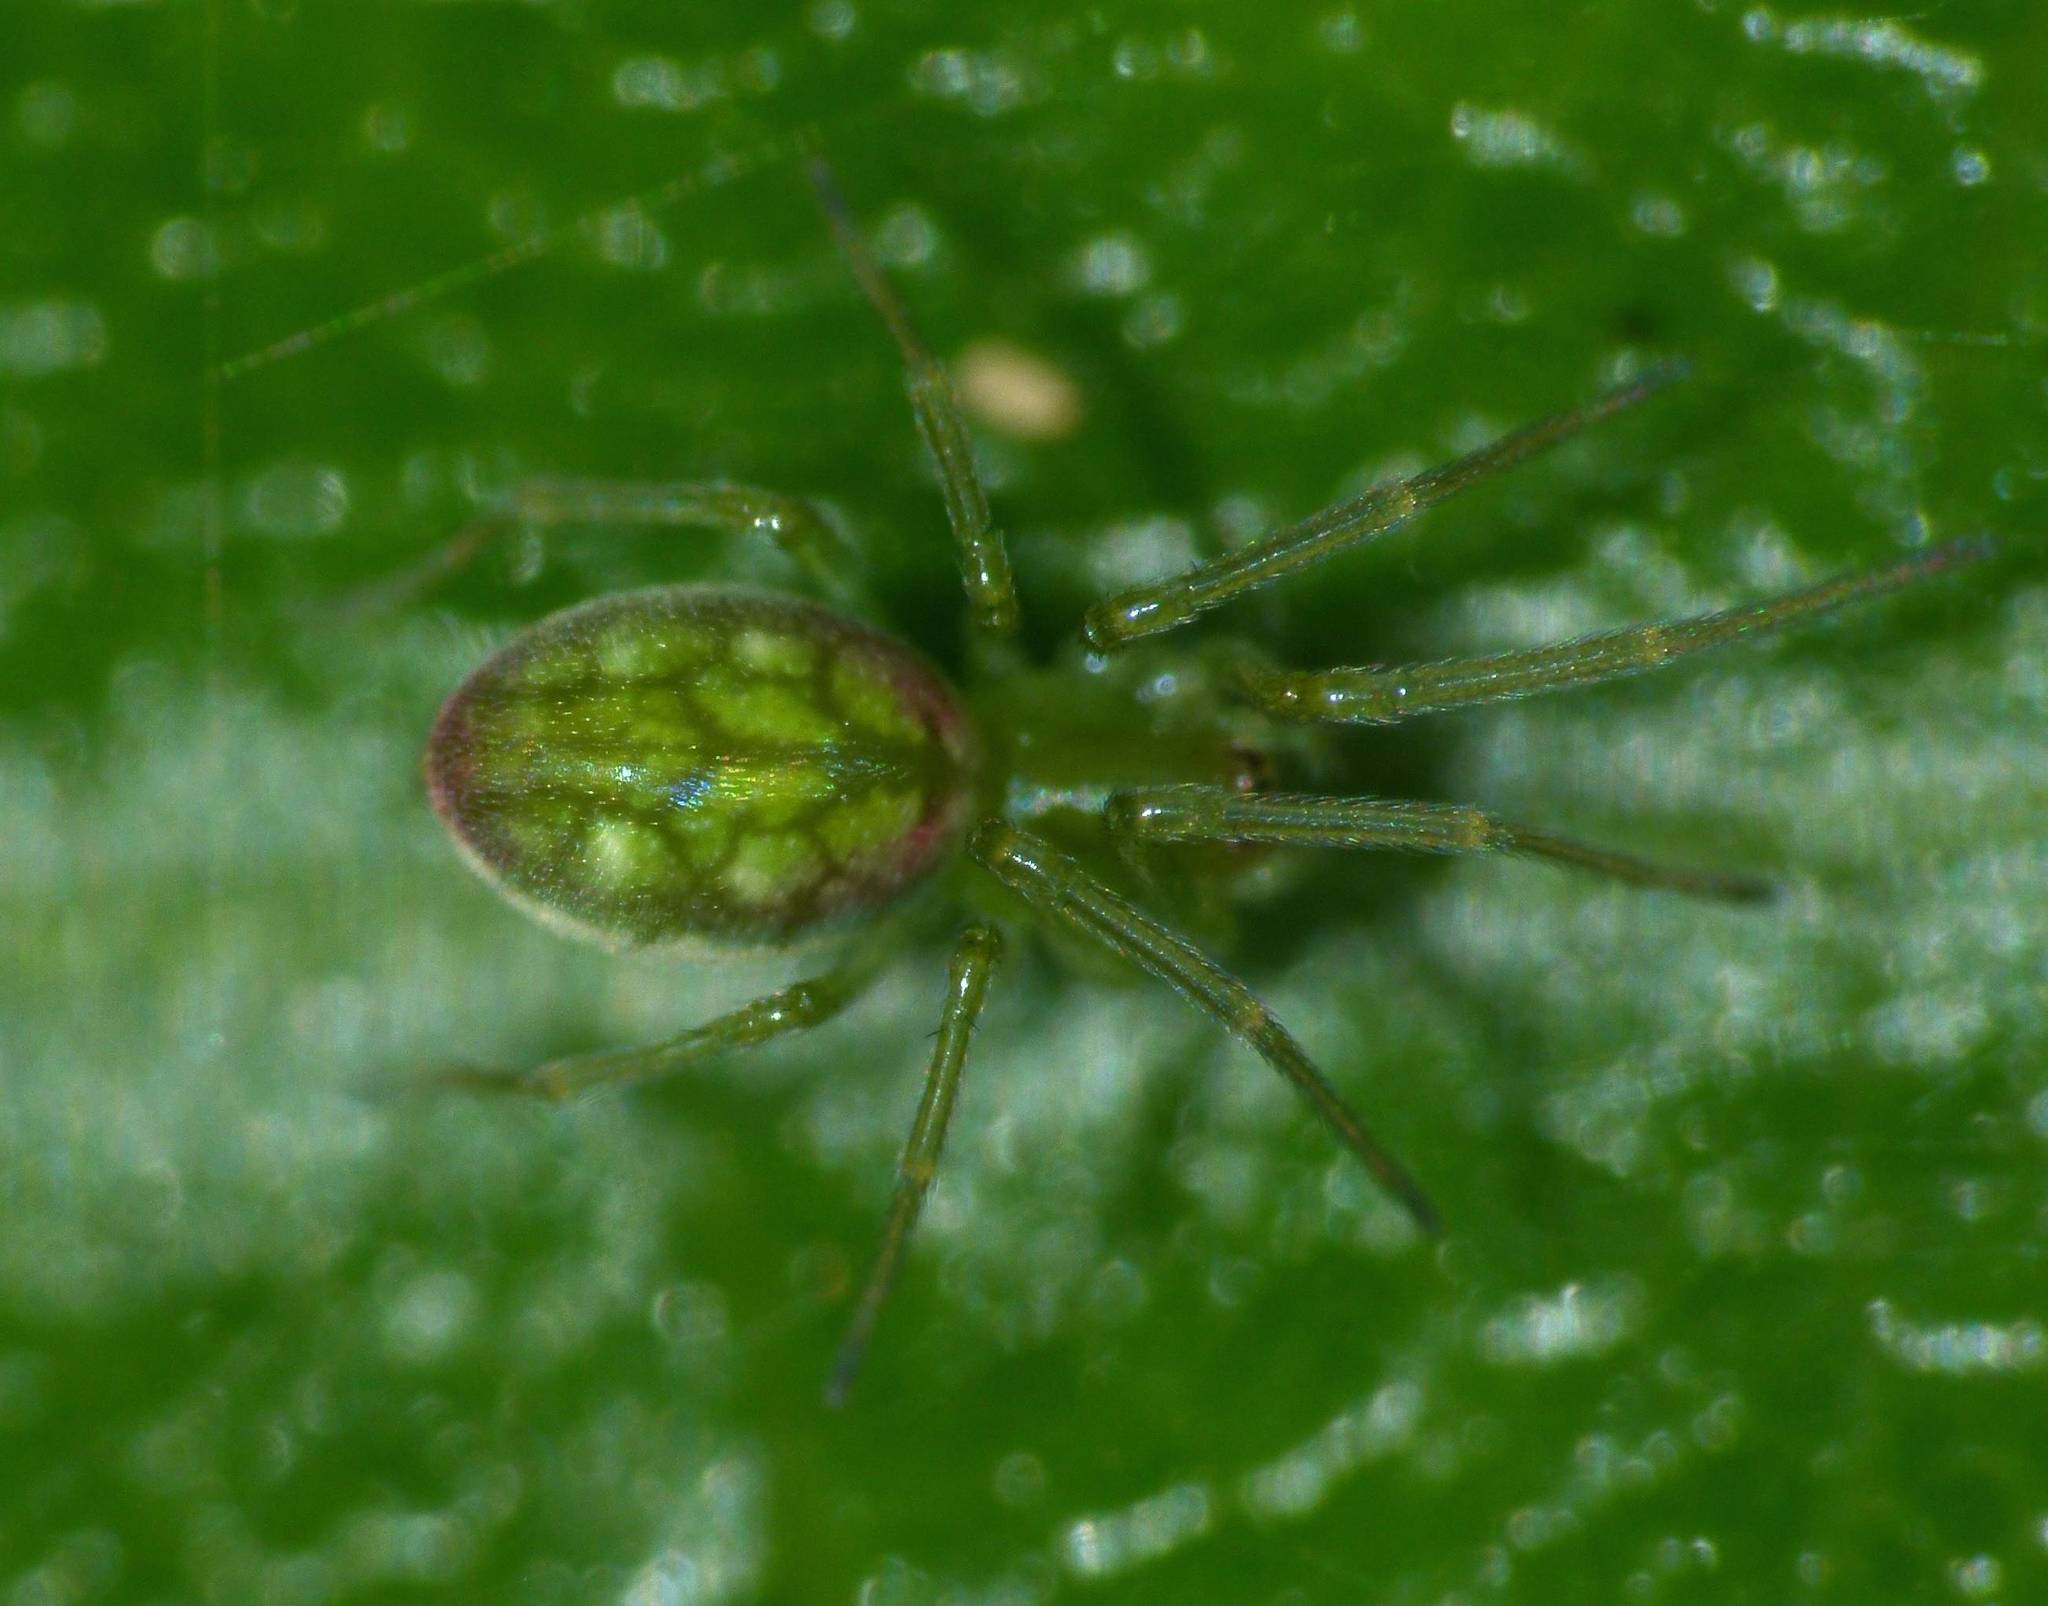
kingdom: Animalia
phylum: Arthropoda
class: Arachnida
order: Araneae
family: Dictynidae
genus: Paradictyna
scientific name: Paradictyna ilamia
